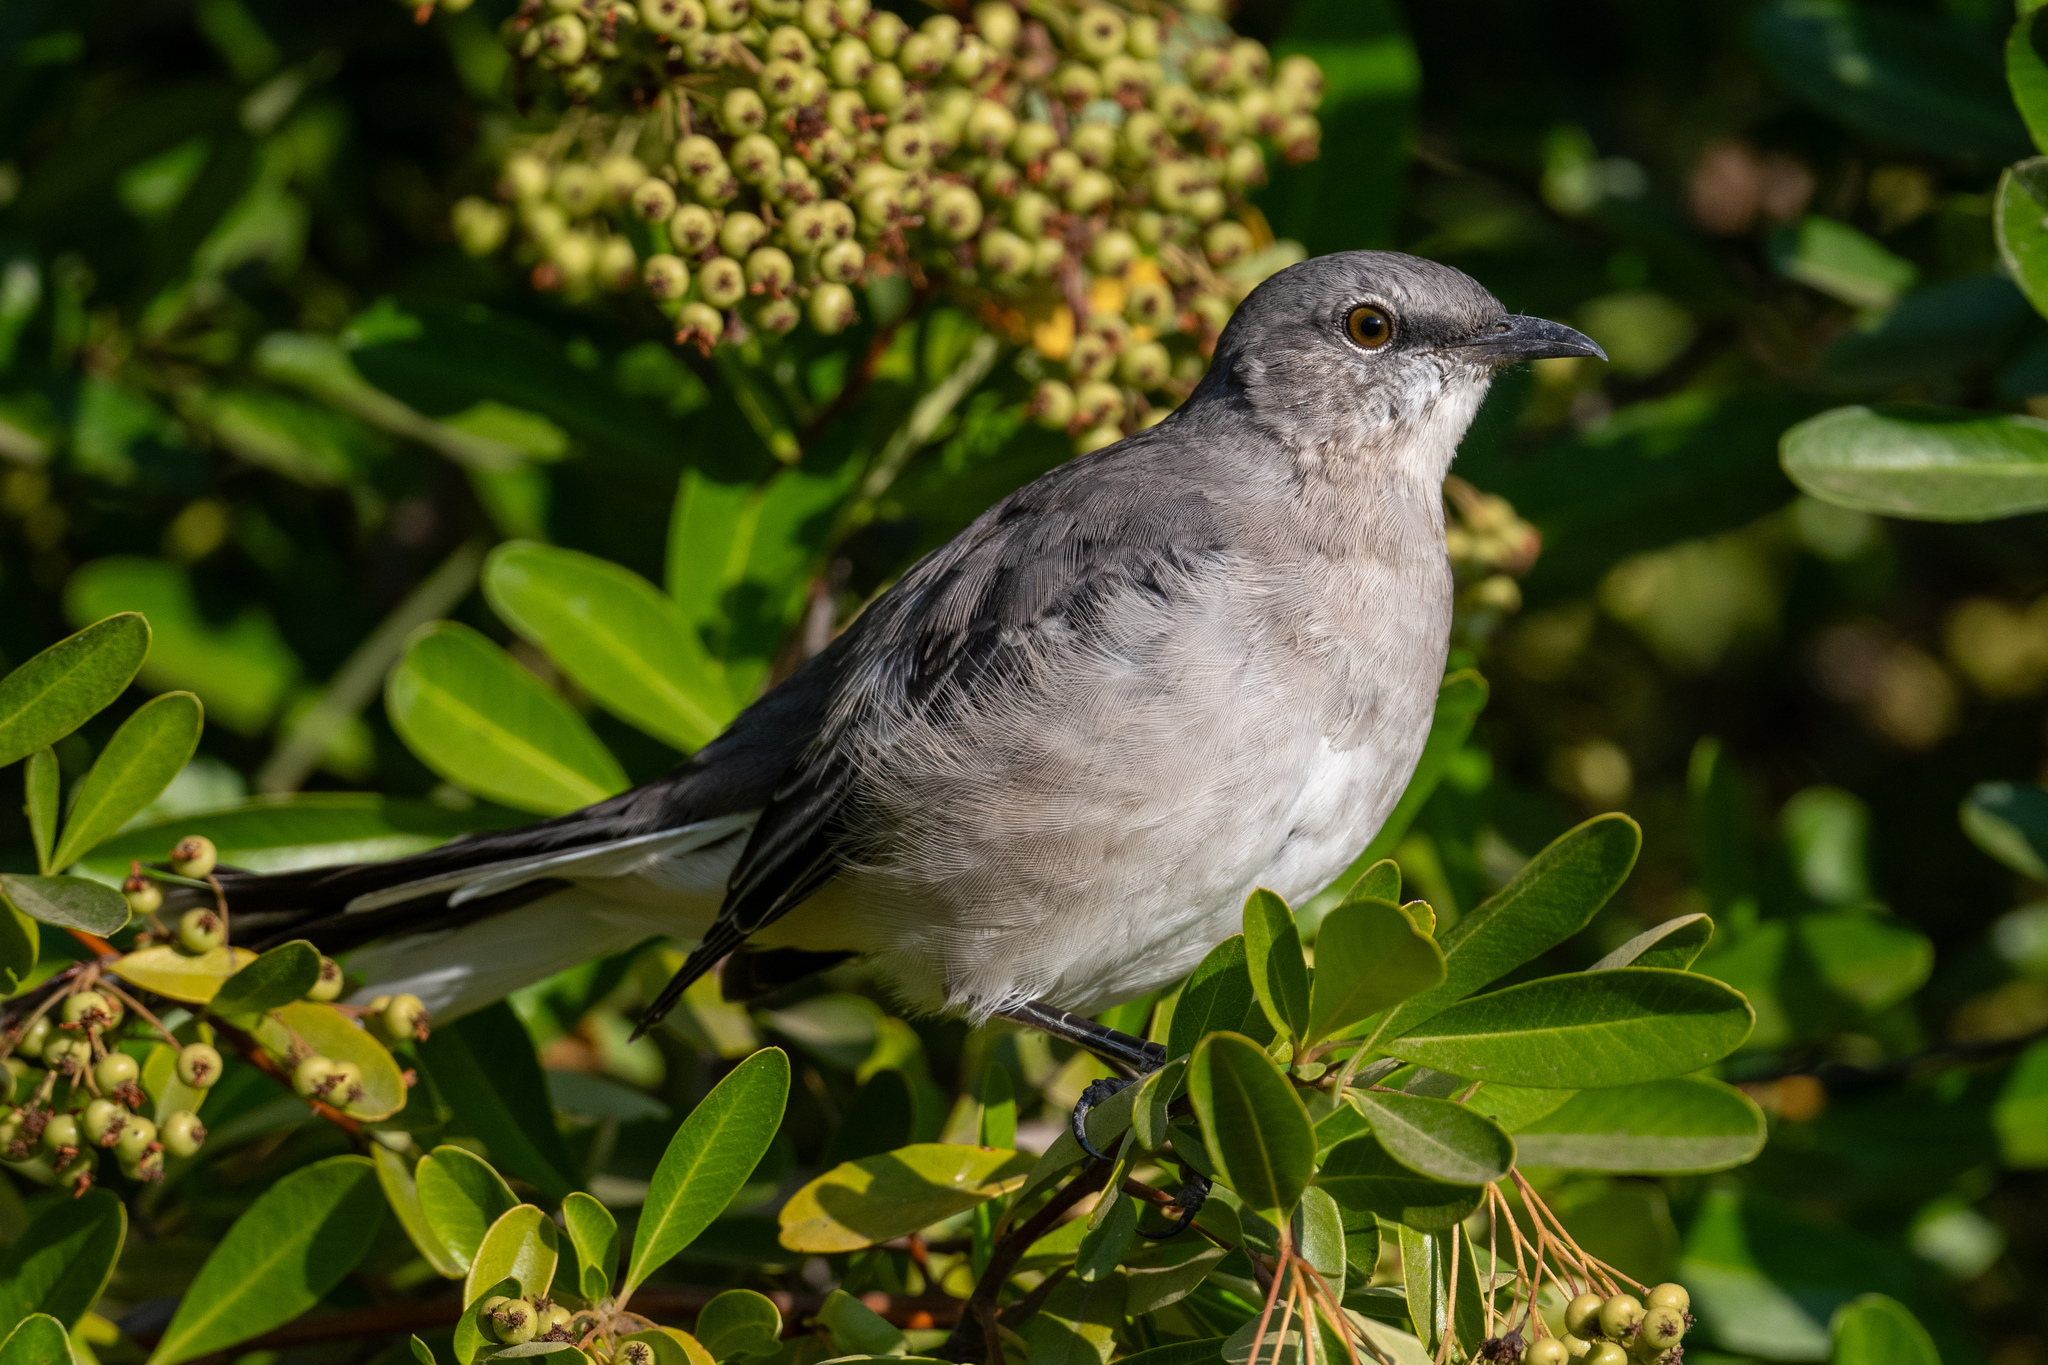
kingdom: Animalia
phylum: Chordata
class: Aves
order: Passeriformes
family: Mimidae
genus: Mimus
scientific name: Mimus polyglottos
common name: Northern mockingbird
